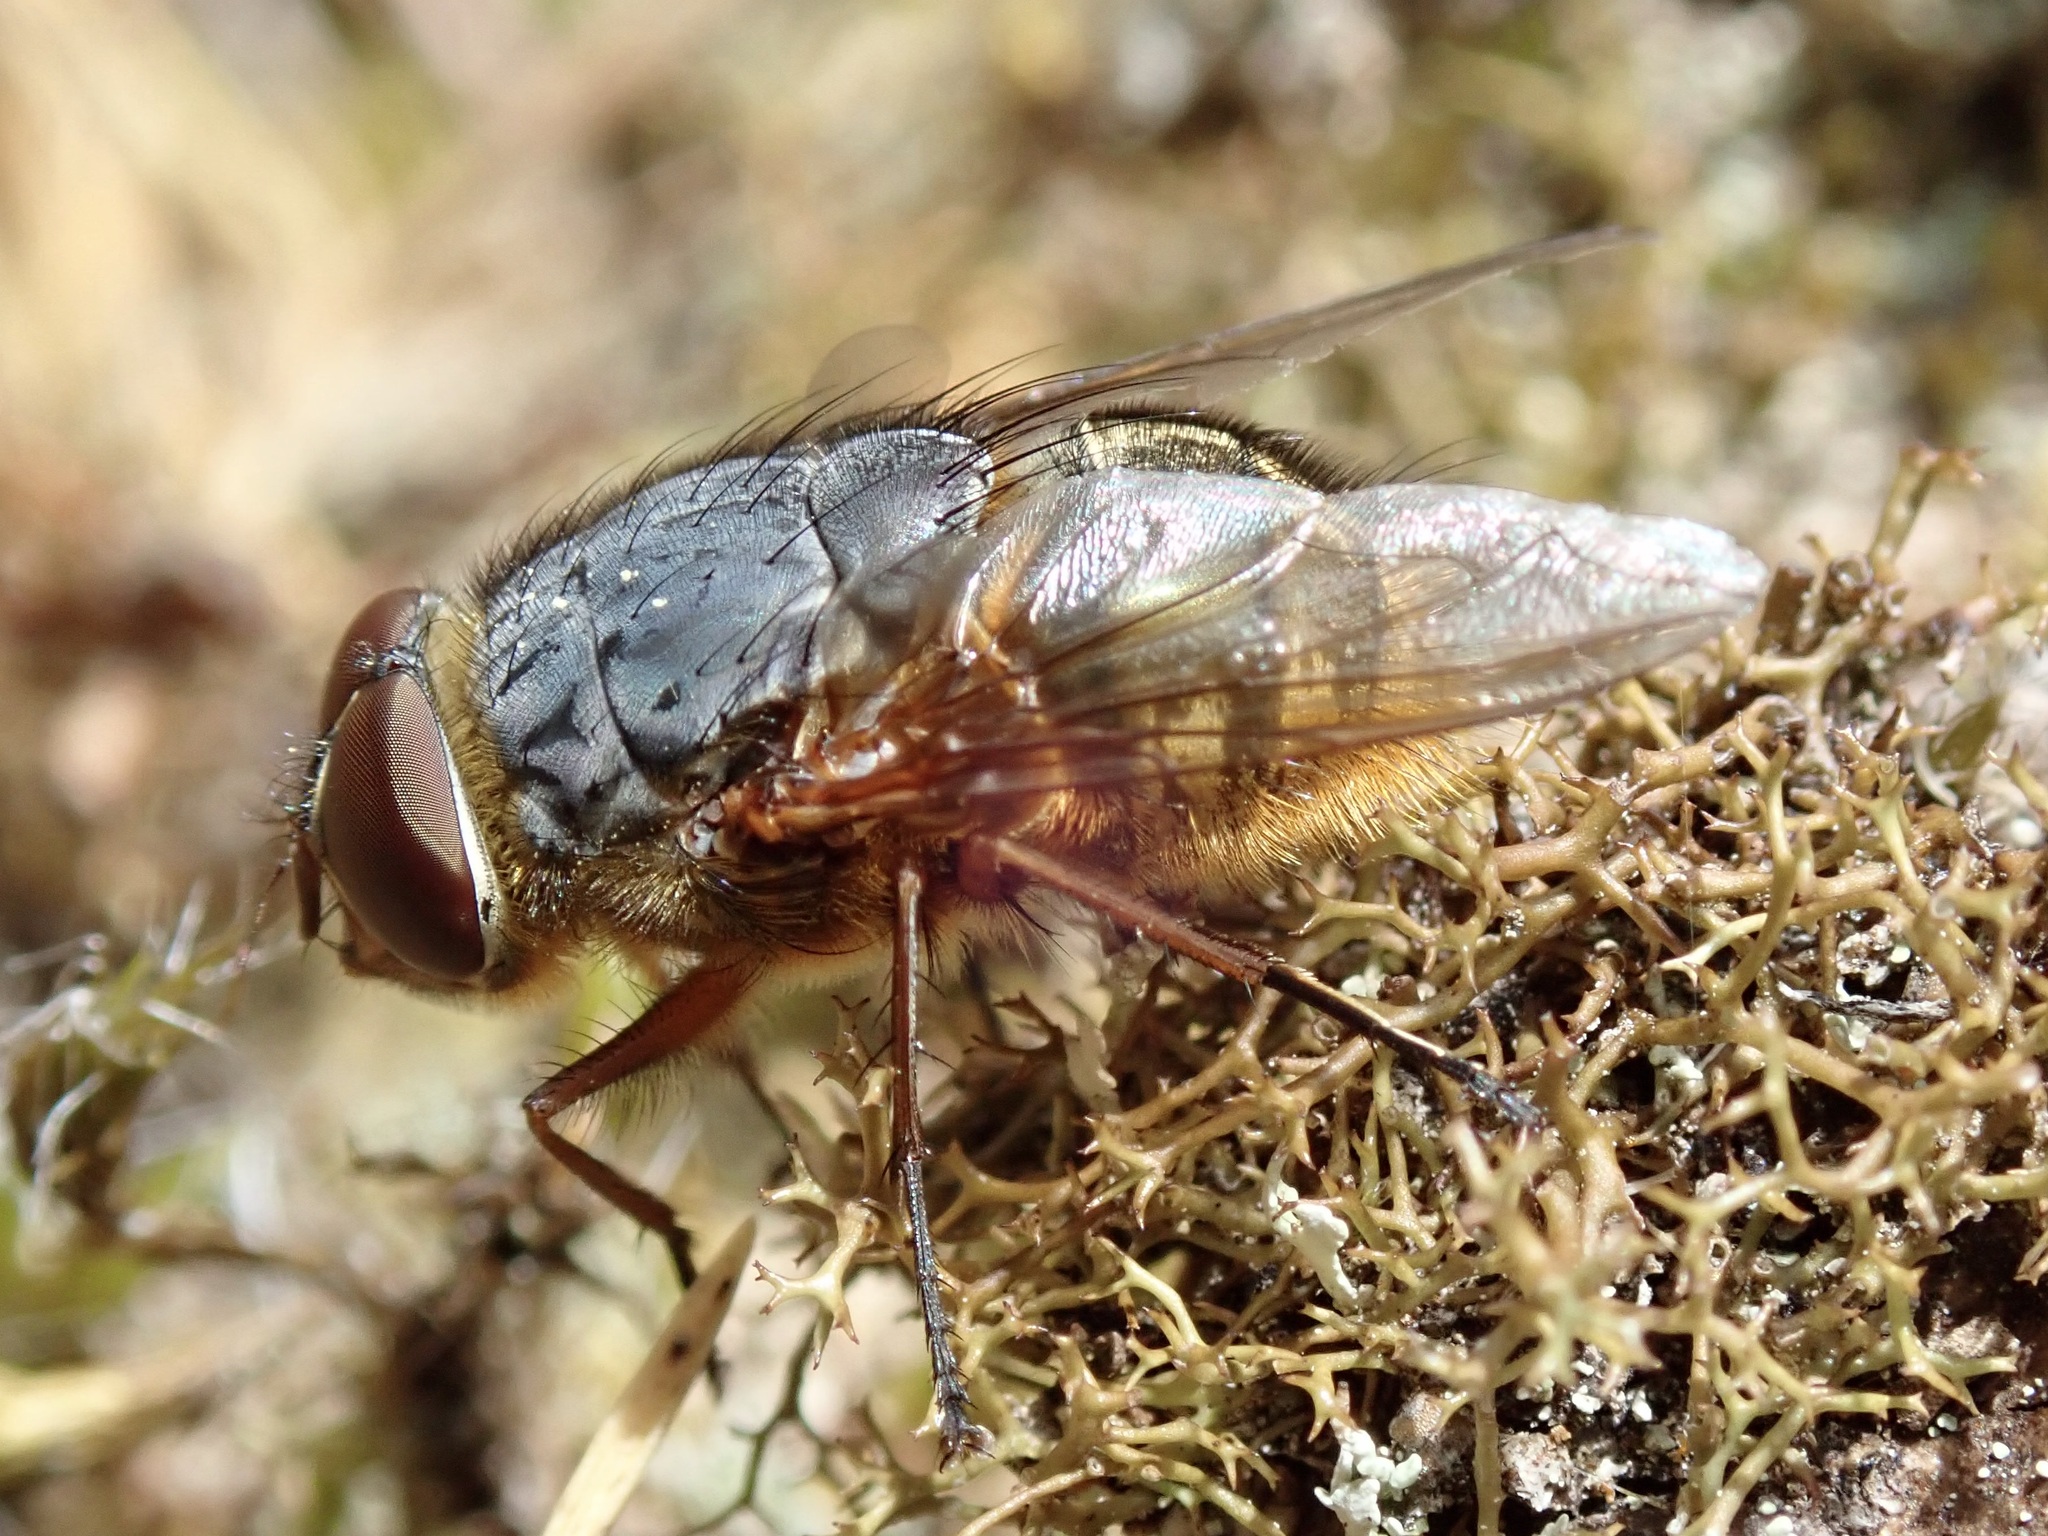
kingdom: Animalia
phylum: Arthropoda
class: Insecta
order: Diptera
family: Calliphoridae
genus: Calliphora
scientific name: Calliphora stygia
